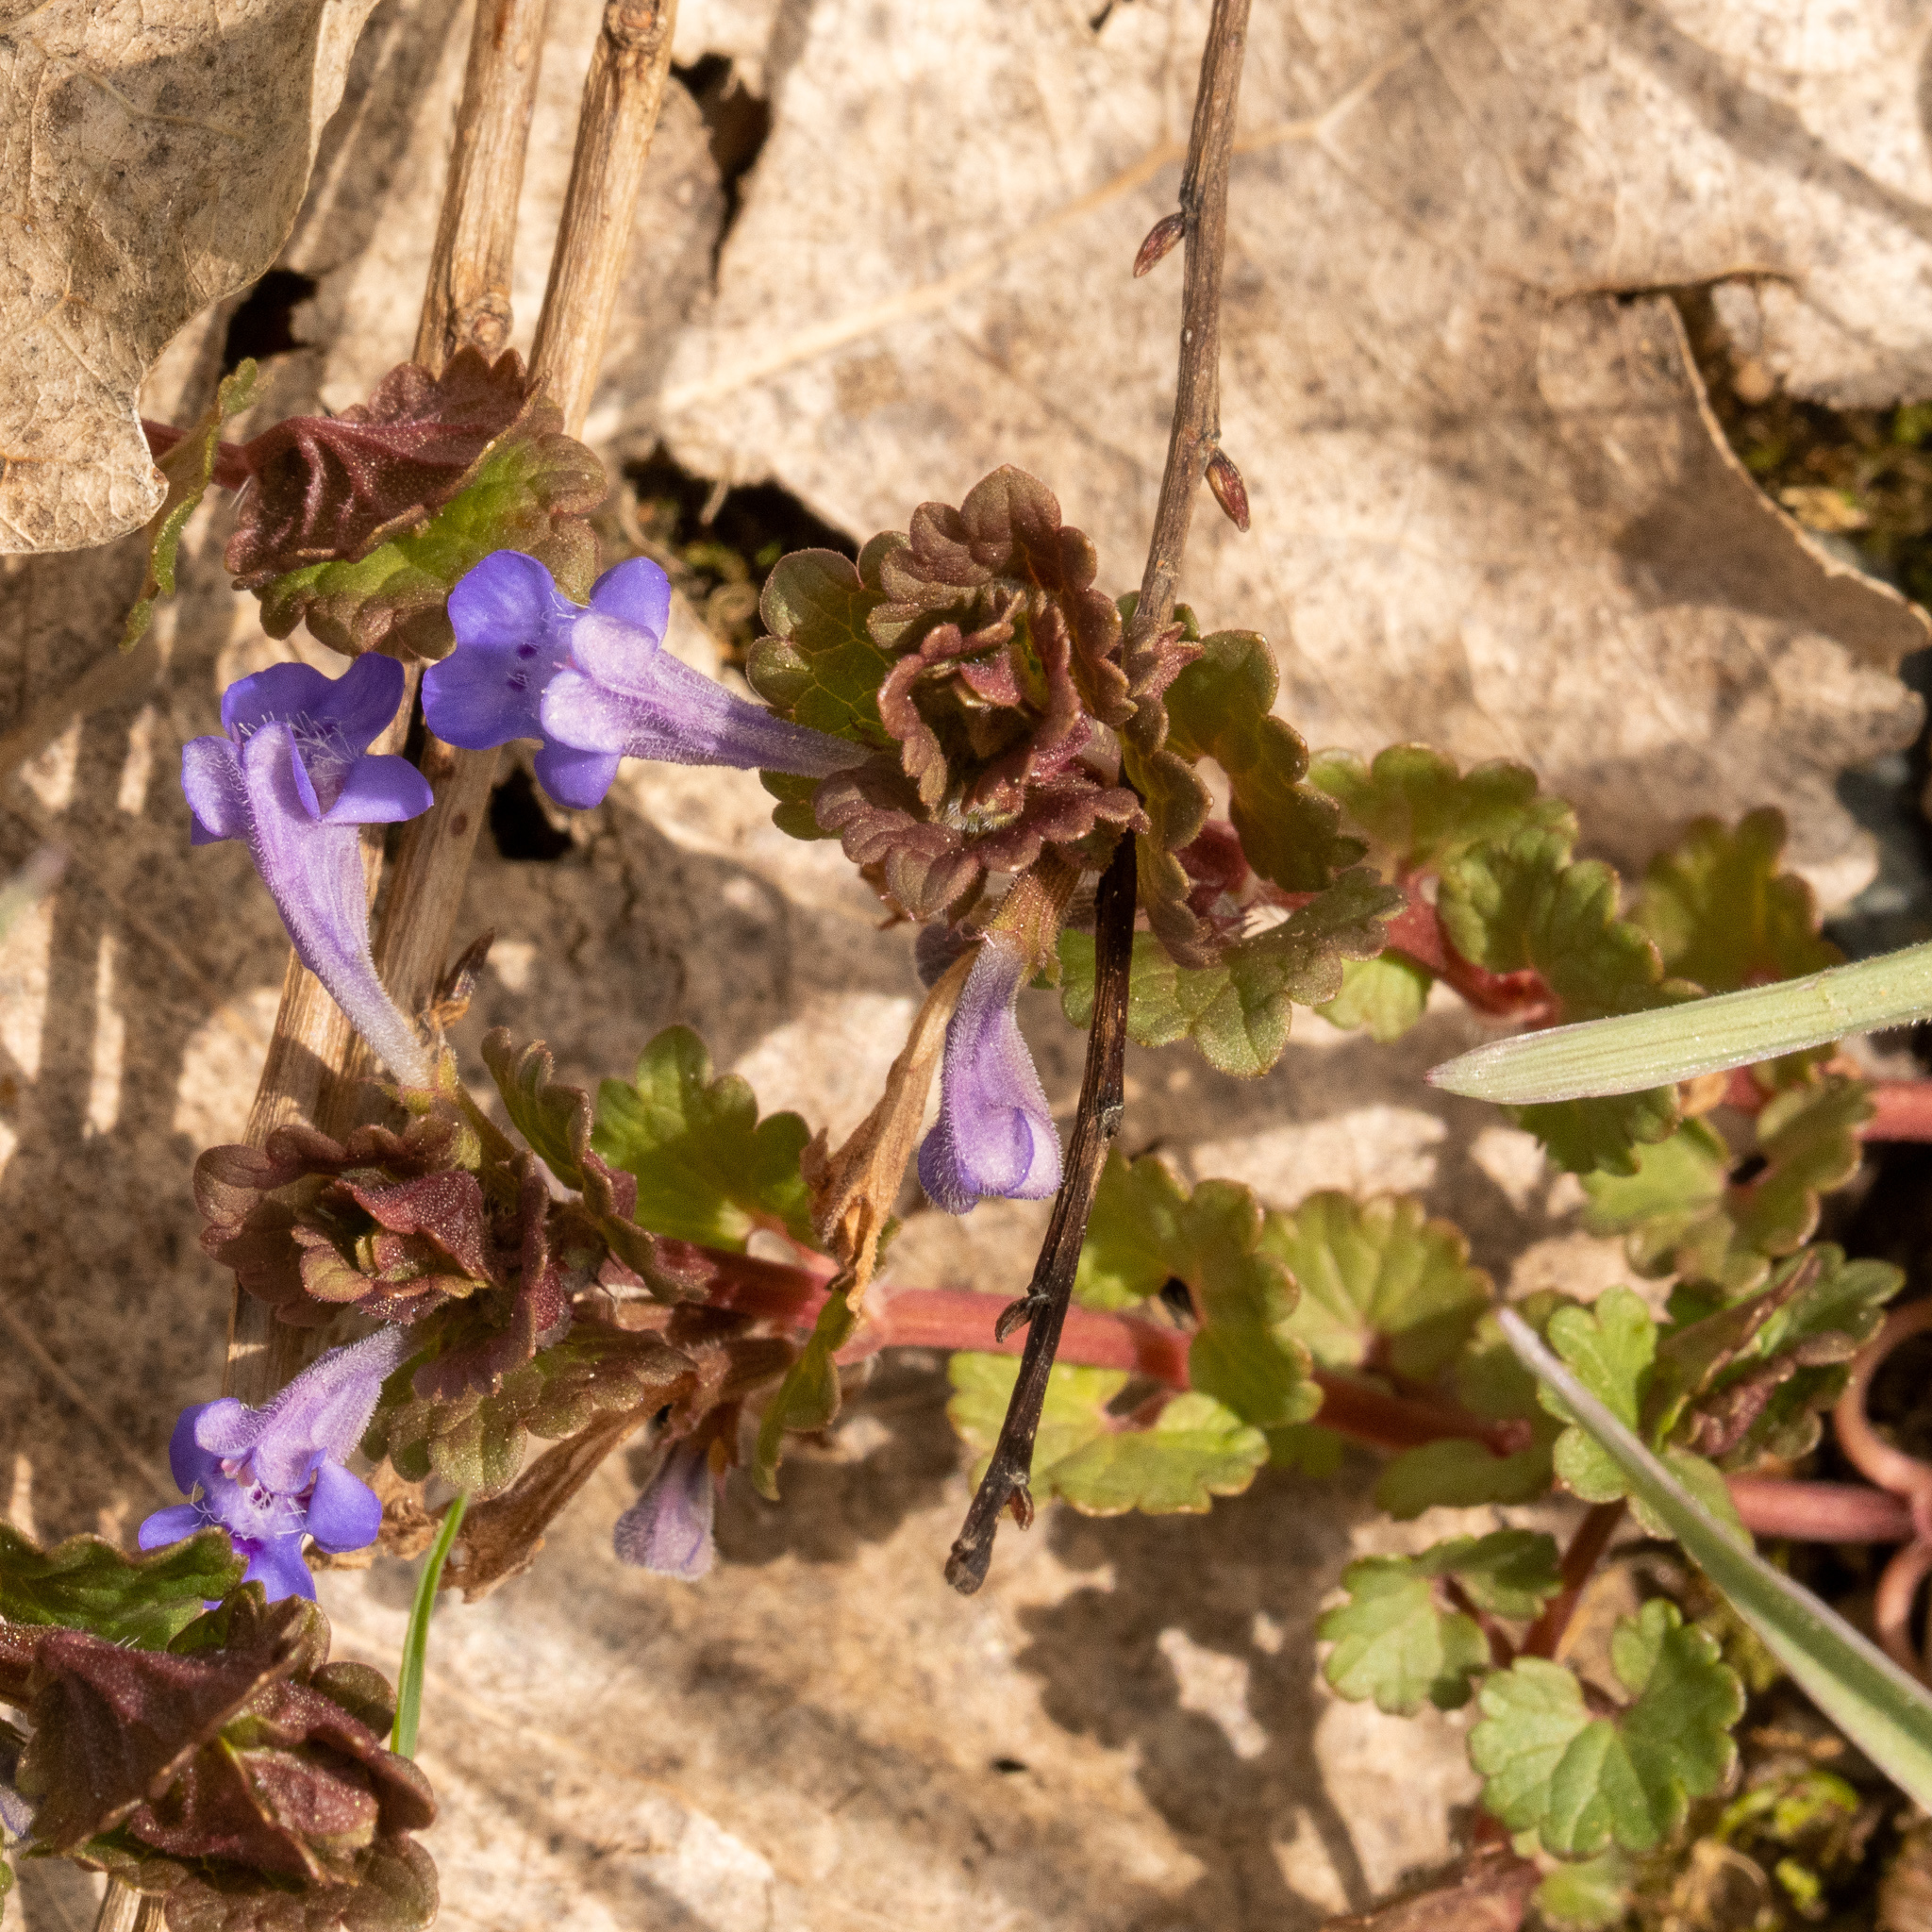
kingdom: Plantae
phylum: Tracheophyta
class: Magnoliopsida
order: Lamiales
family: Lamiaceae
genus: Glechoma
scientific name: Glechoma hederacea
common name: Ground ivy
